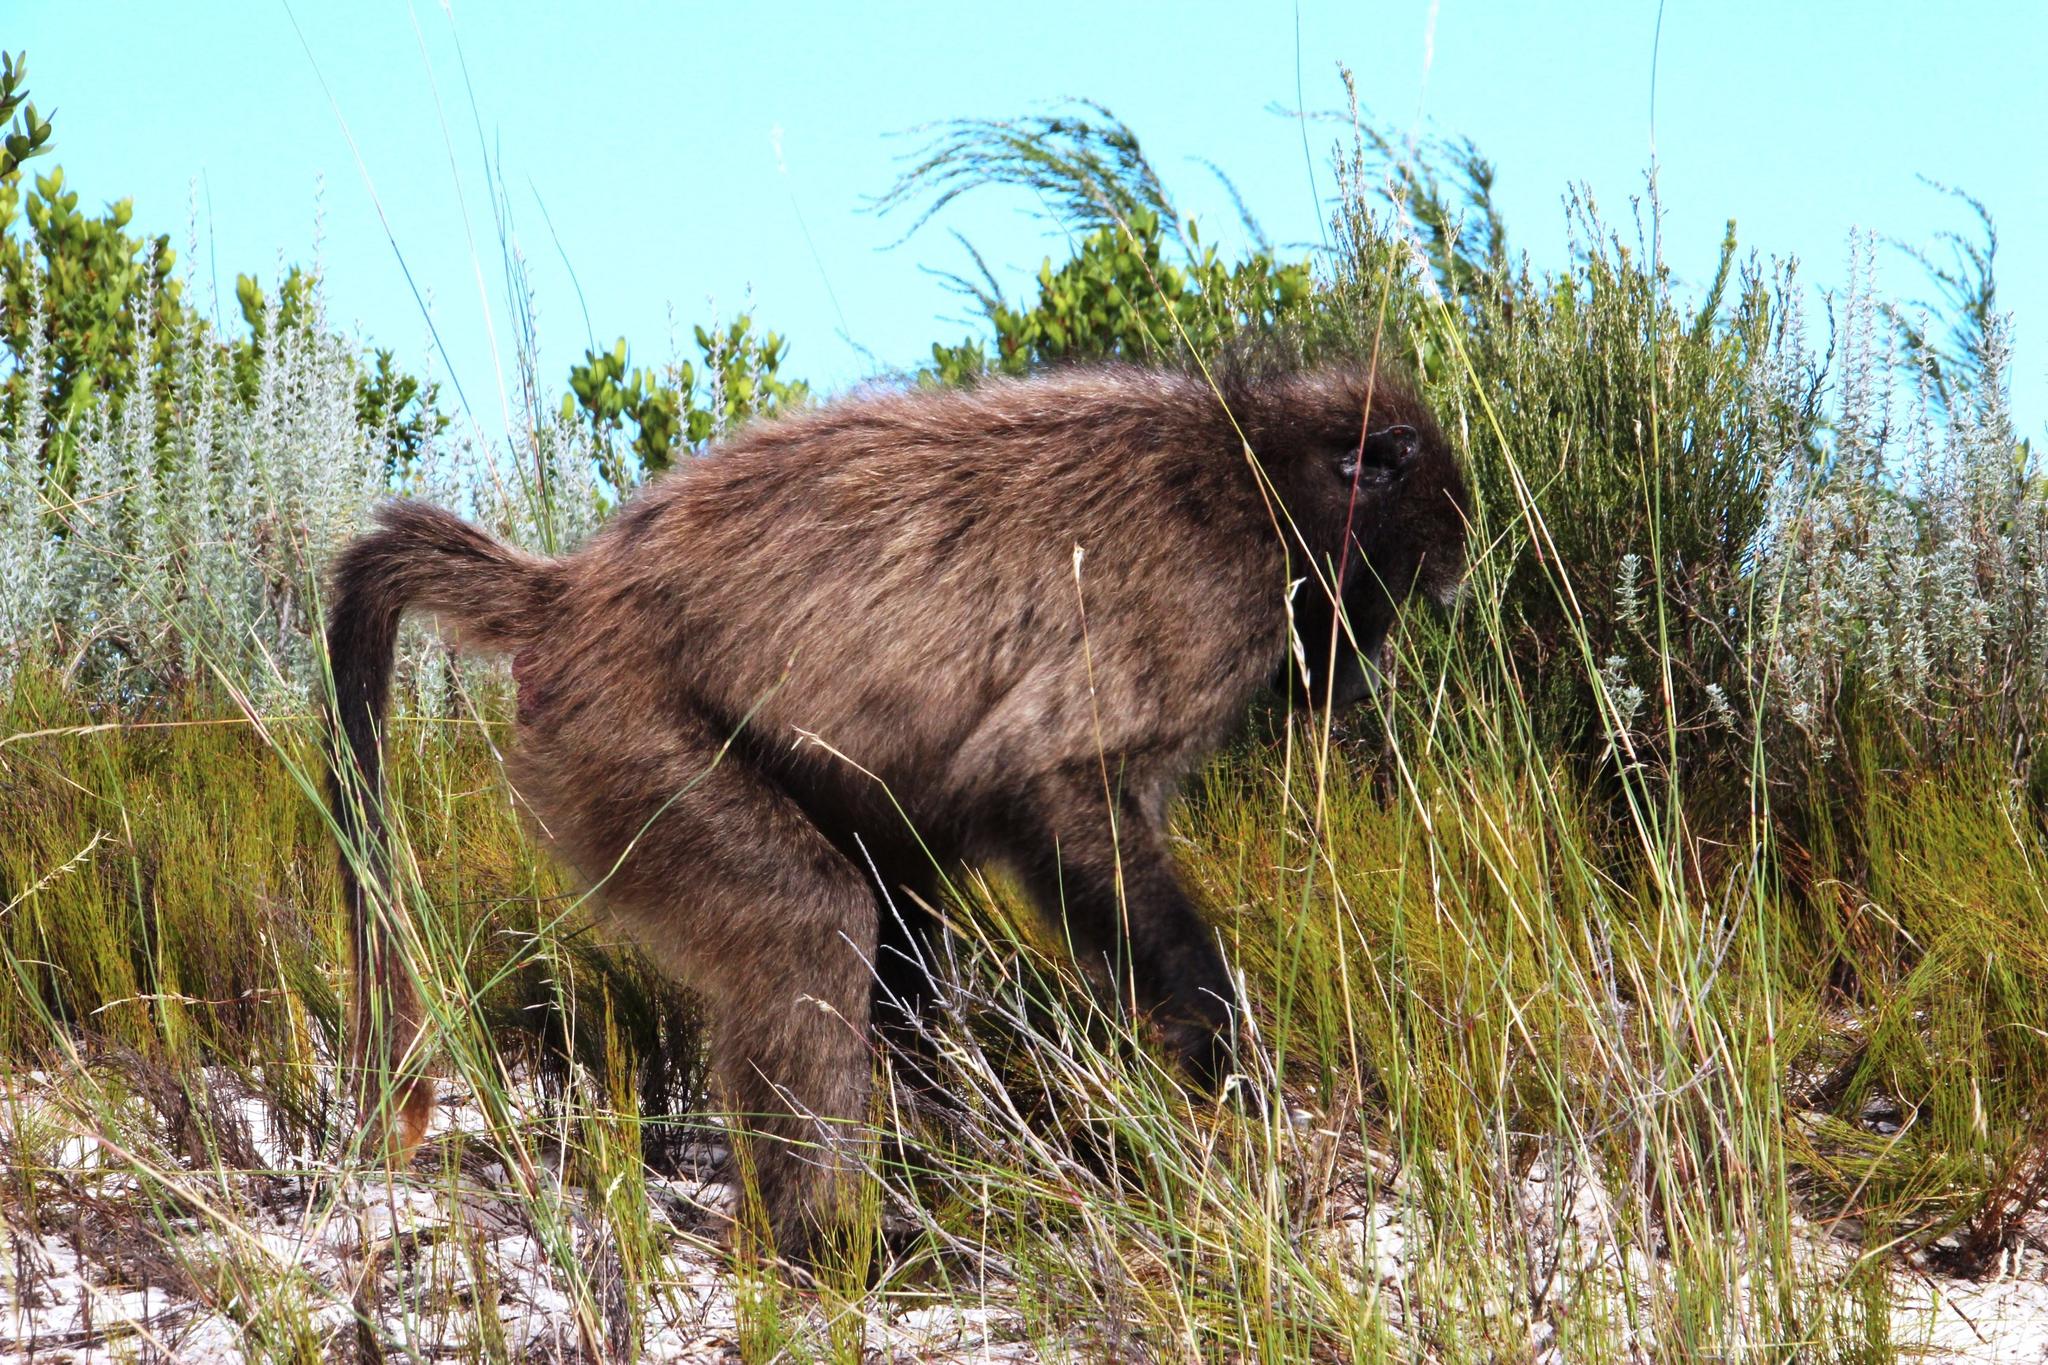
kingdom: Animalia
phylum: Chordata
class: Mammalia
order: Primates
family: Cercopithecidae
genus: Papio
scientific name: Papio ursinus
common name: Chacma baboon
